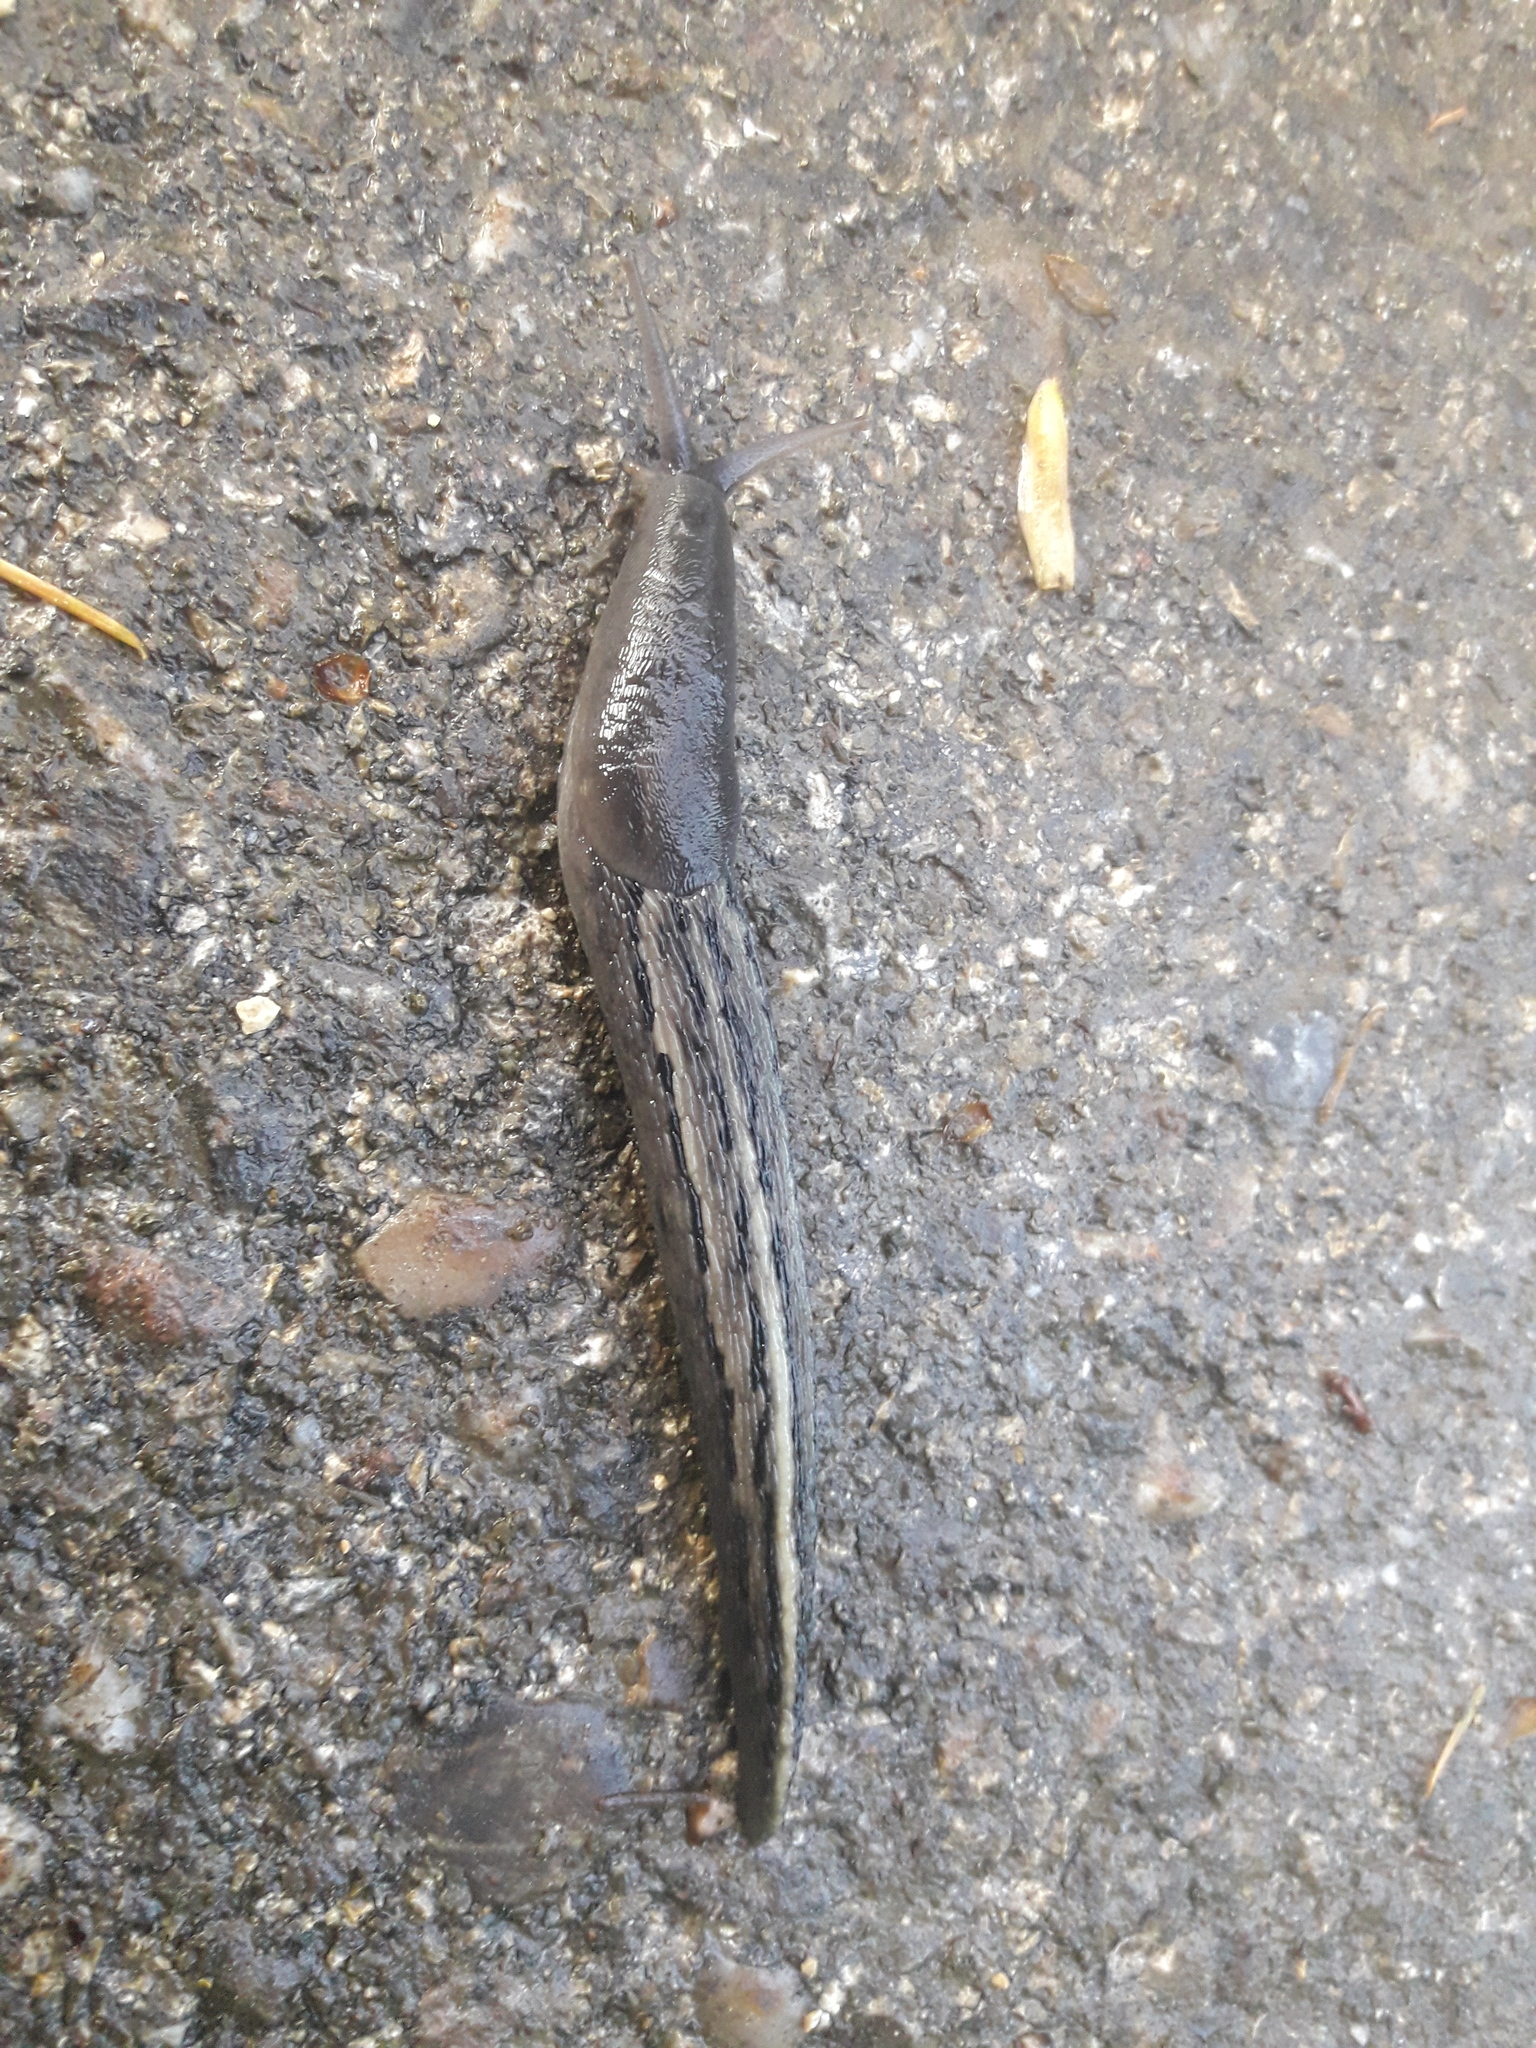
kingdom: Animalia
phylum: Mollusca
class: Gastropoda
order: Stylommatophora
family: Limacidae
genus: Limax
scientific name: Limax cinereoniger
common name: Ash-black slug
